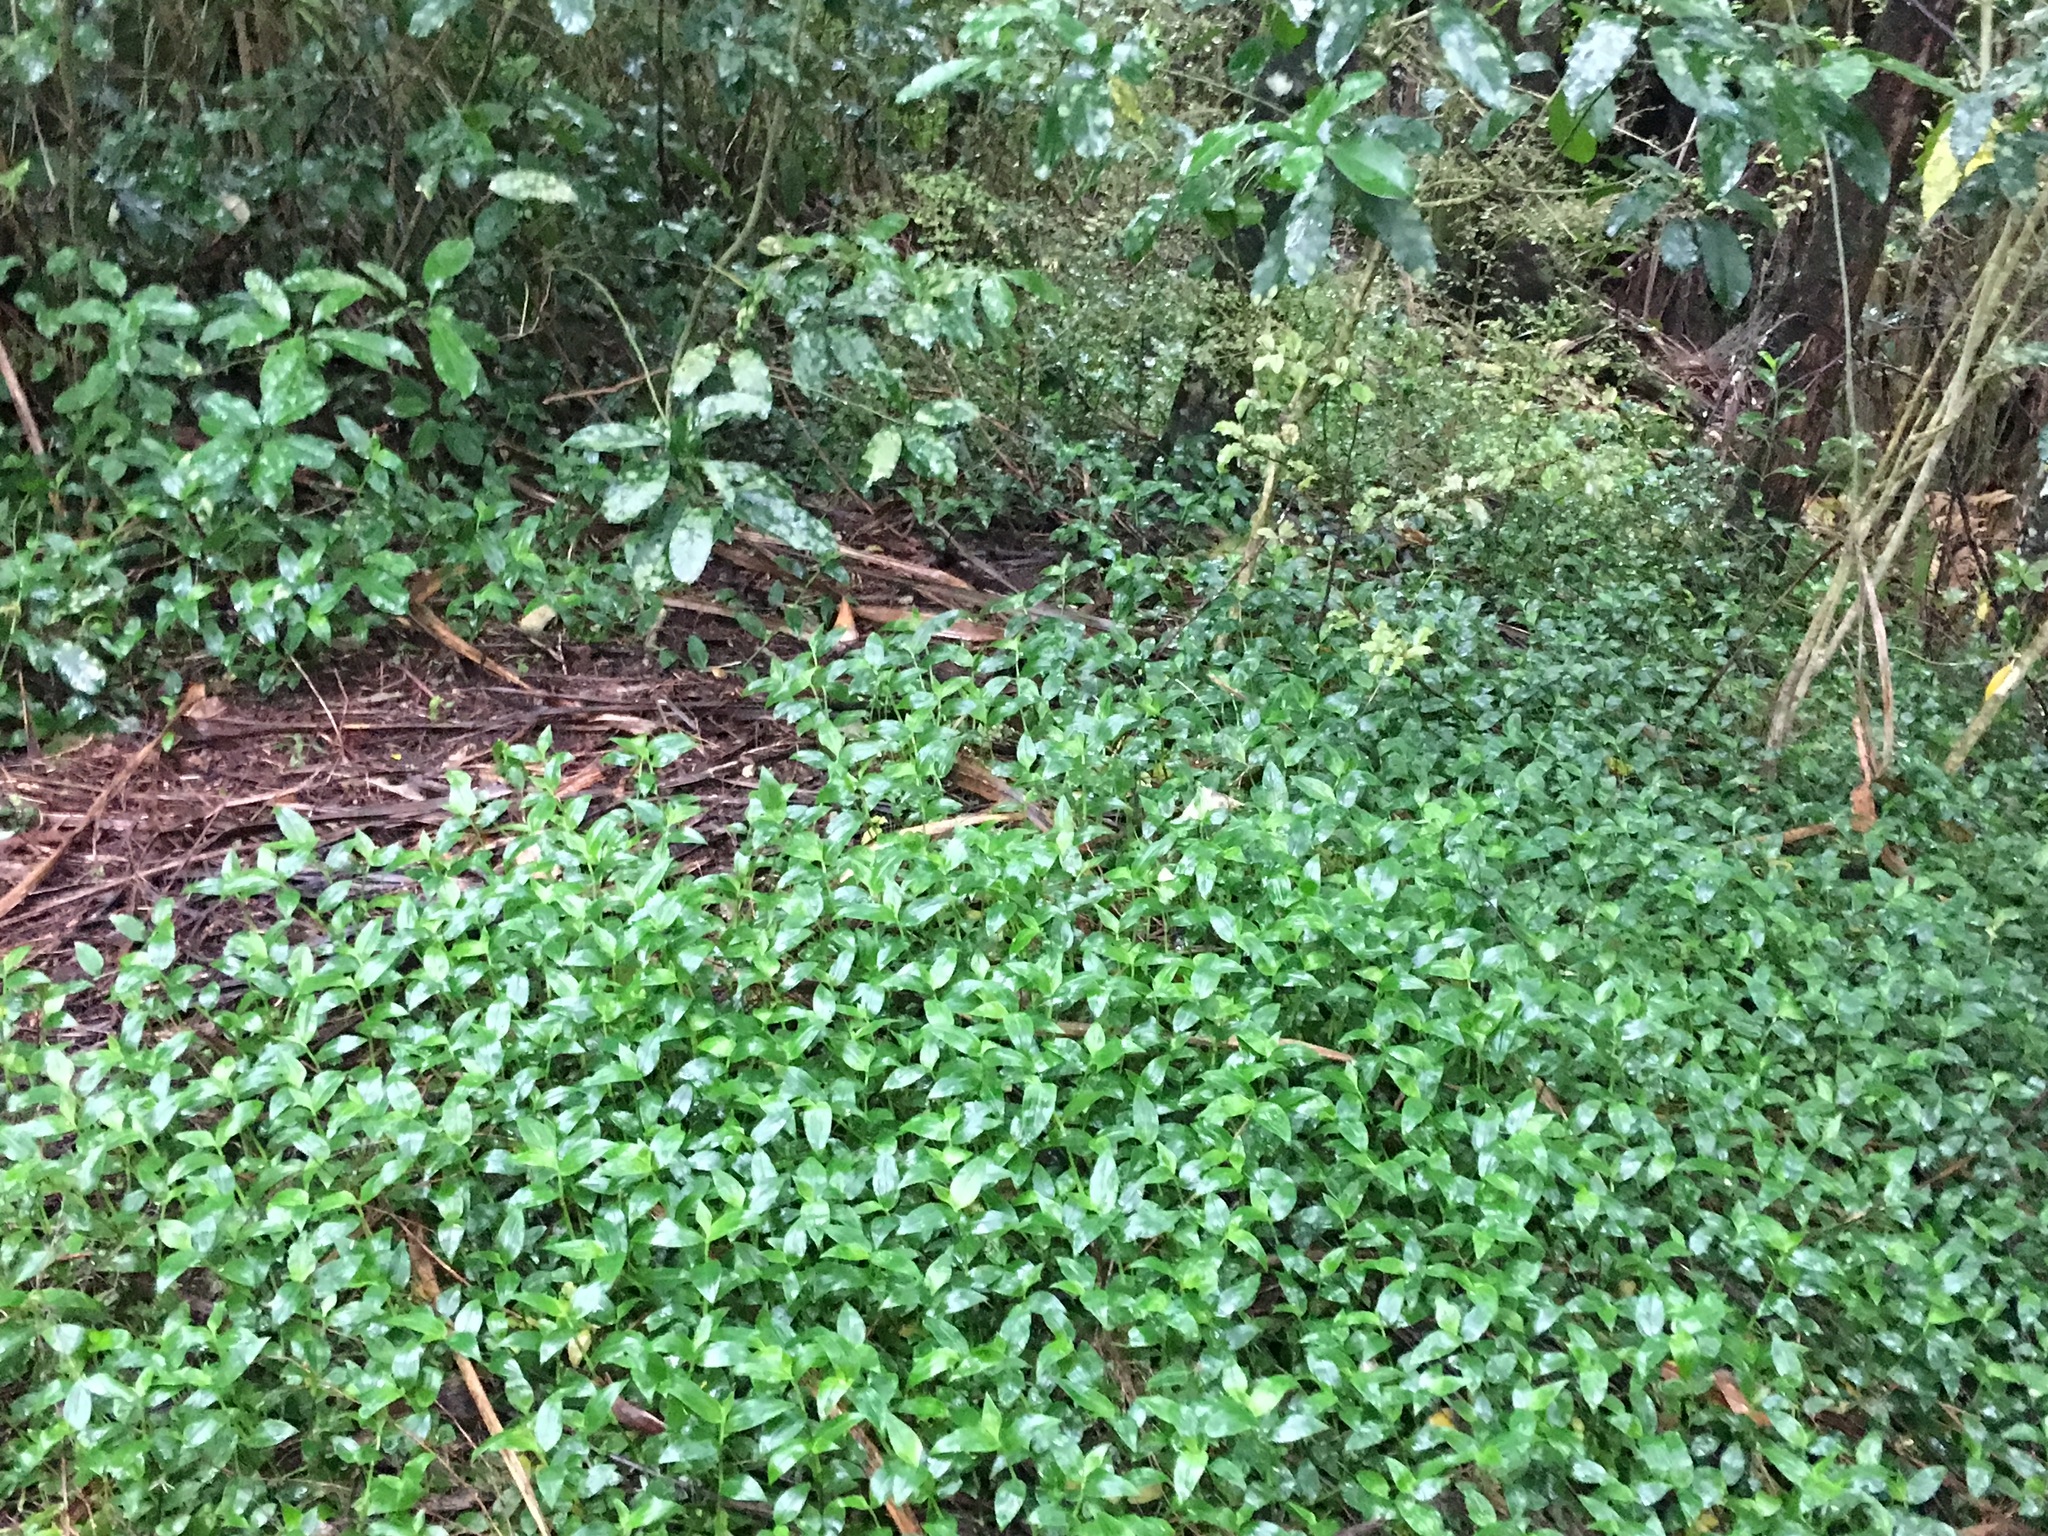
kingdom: Plantae
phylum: Tracheophyta
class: Liliopsida
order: Commelinales
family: Commelinaceae
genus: Tradescantia
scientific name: Tradescantia fluminensis
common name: Wandering-jew
